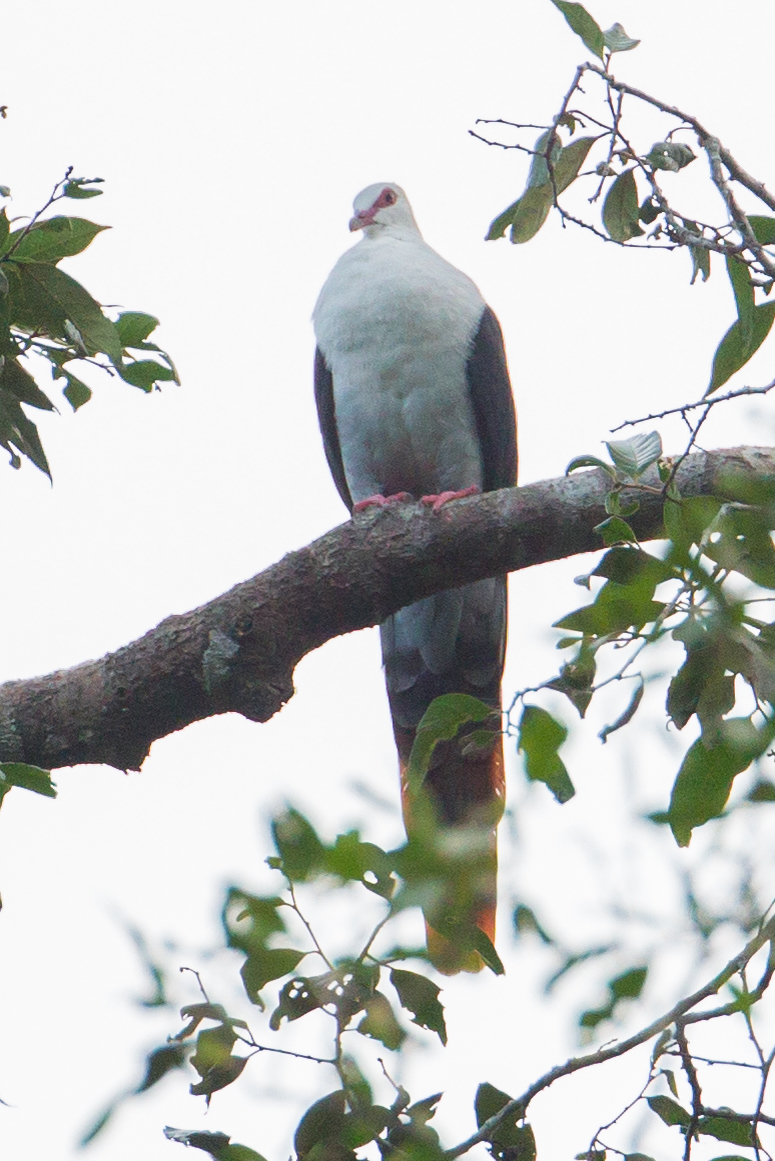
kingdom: Animalia
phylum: Chordata
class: Aves
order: Columbiformes
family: Columbidae
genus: Reinwardtoena
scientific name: Reinwardtoena reinwardti
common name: Great cuckoo-dove
